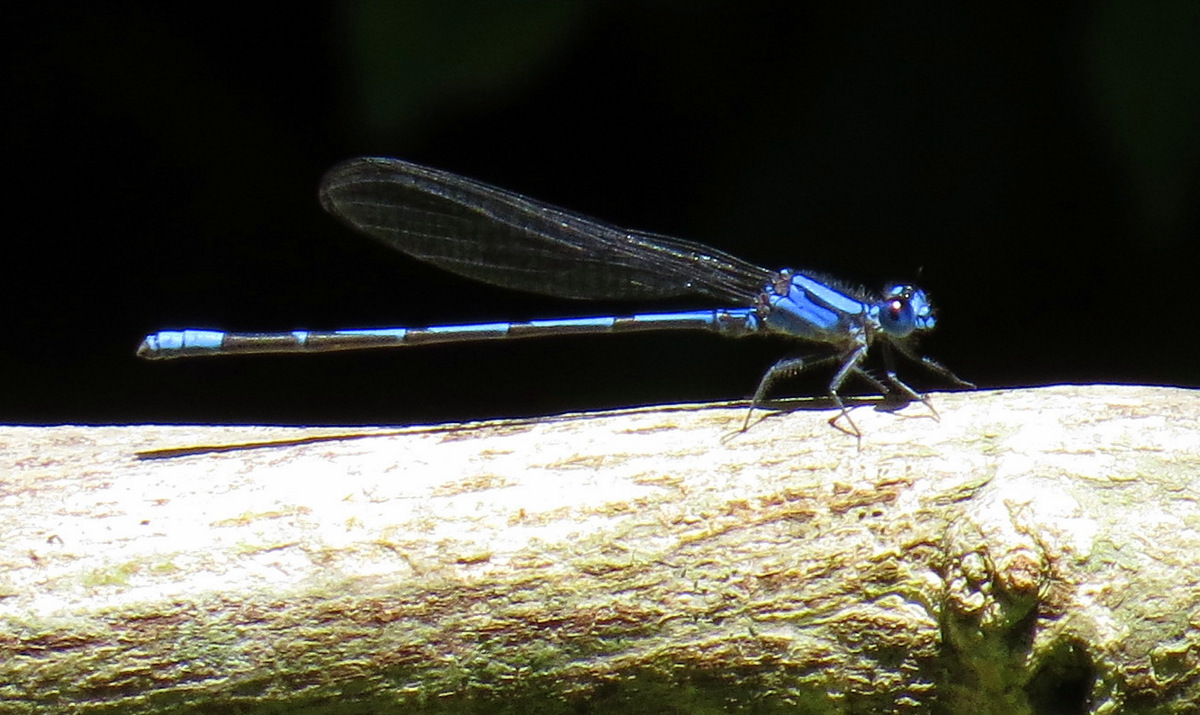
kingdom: Animalia
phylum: Arthropoda
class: Insecta
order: Odonata
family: Coenagrionidae
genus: Argia
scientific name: Argia insipida
